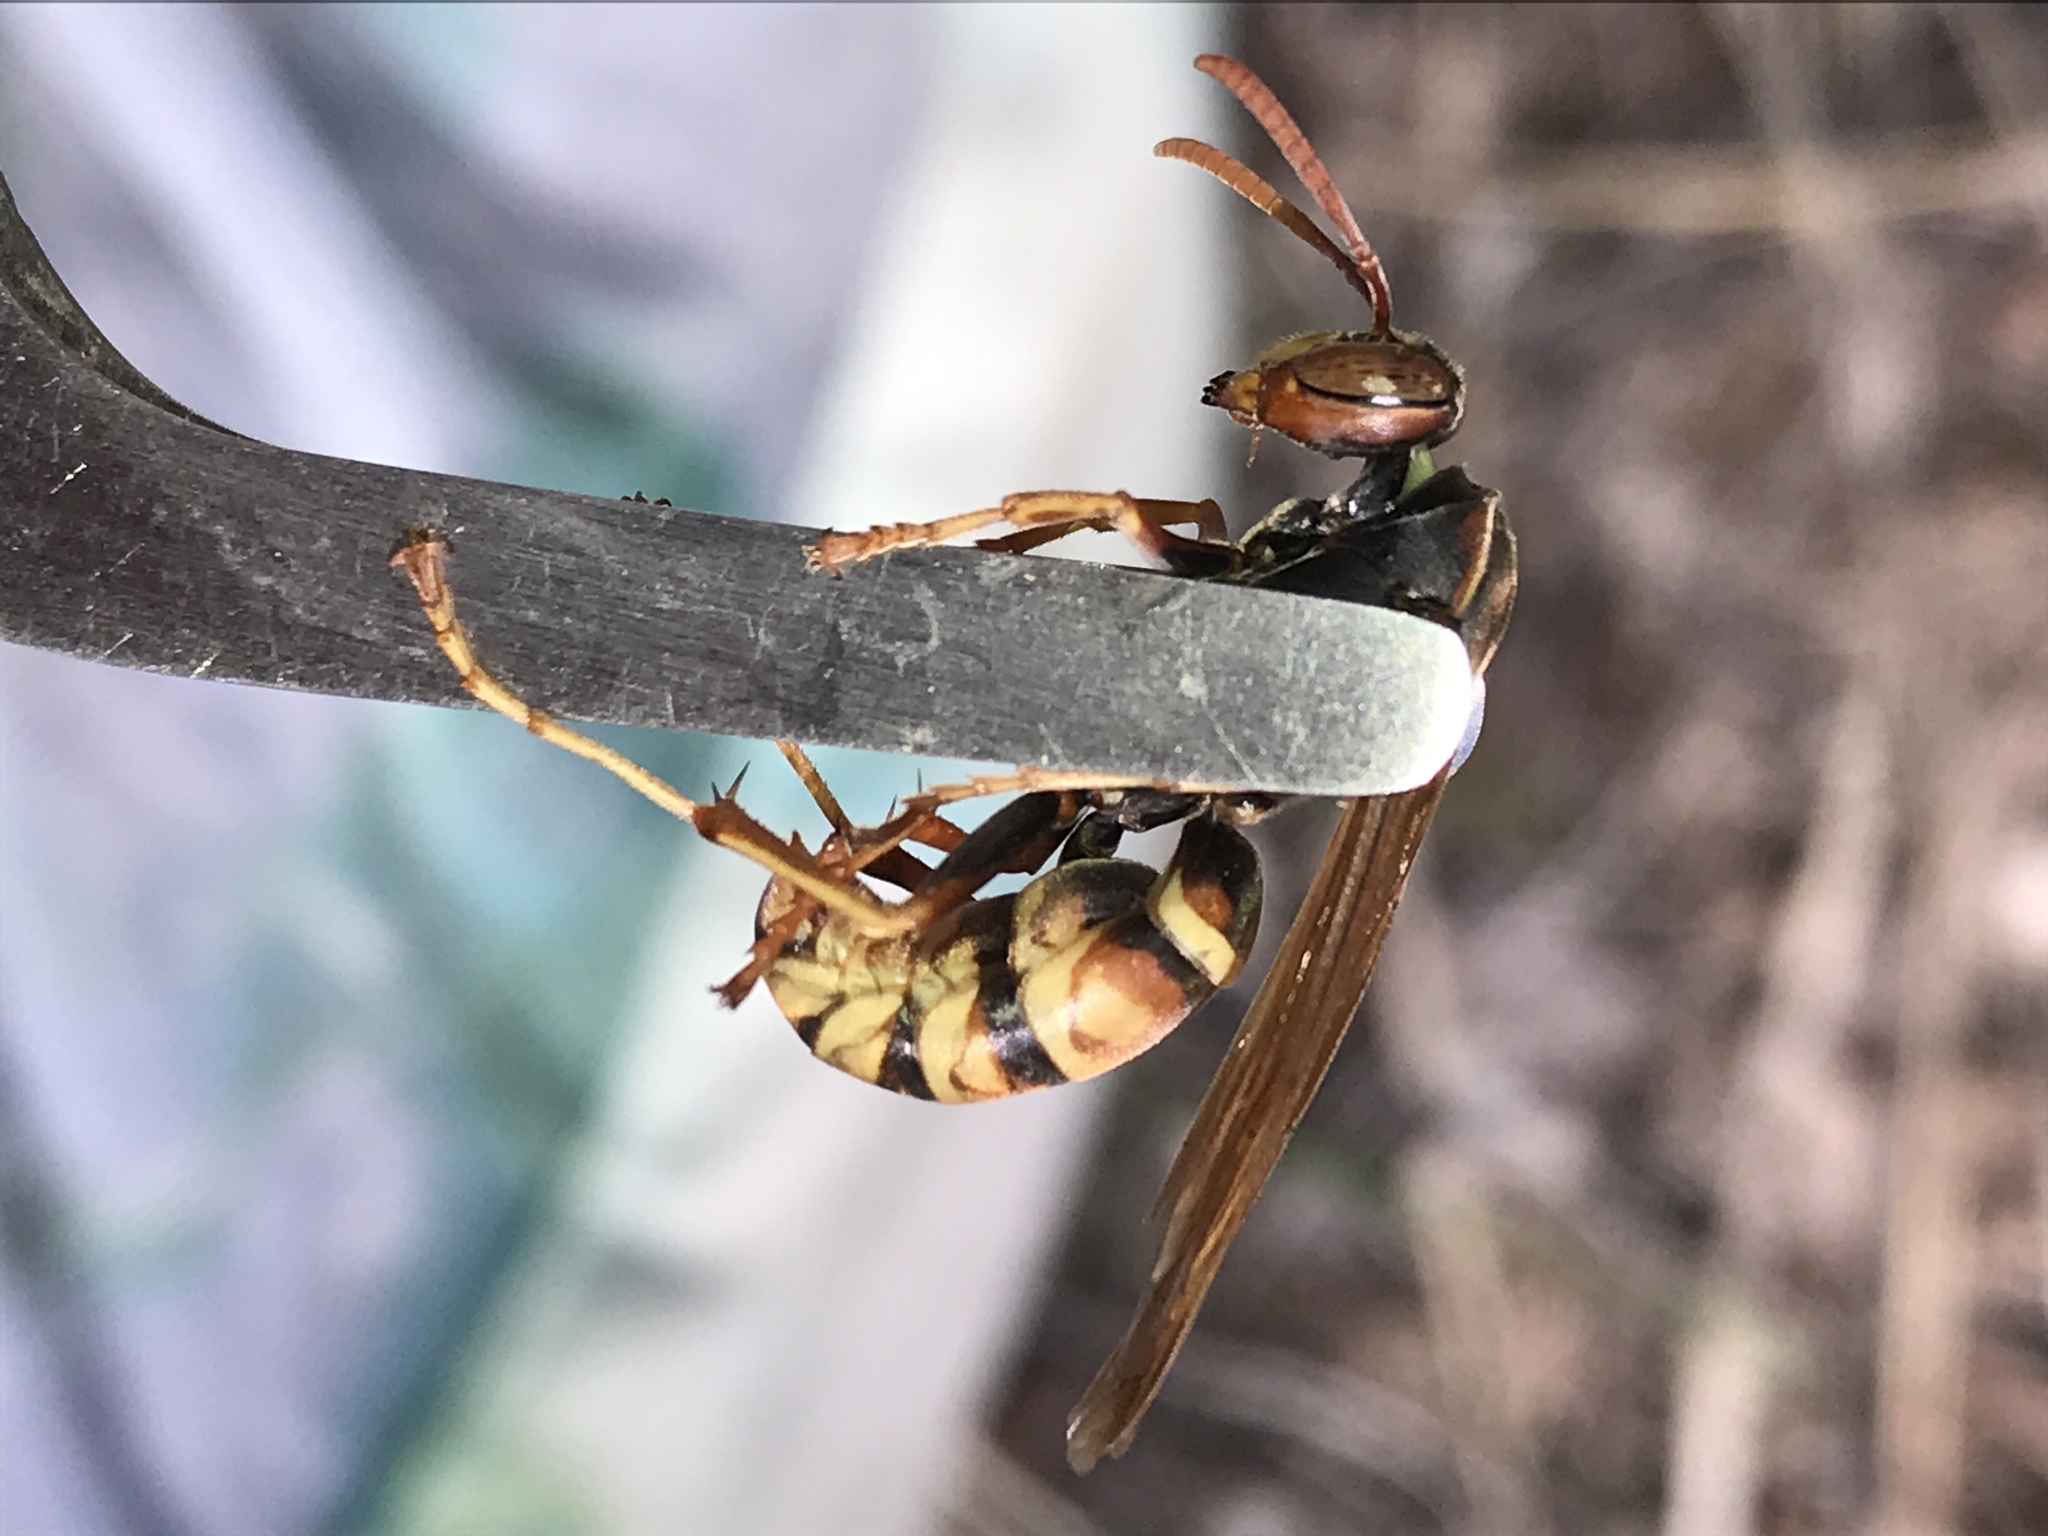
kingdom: Animalia
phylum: Arthropoda
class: Insecta
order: Hymenoptera
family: Eumenidae
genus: Polistes
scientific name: Polistes aurifer
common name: Paper wasp
